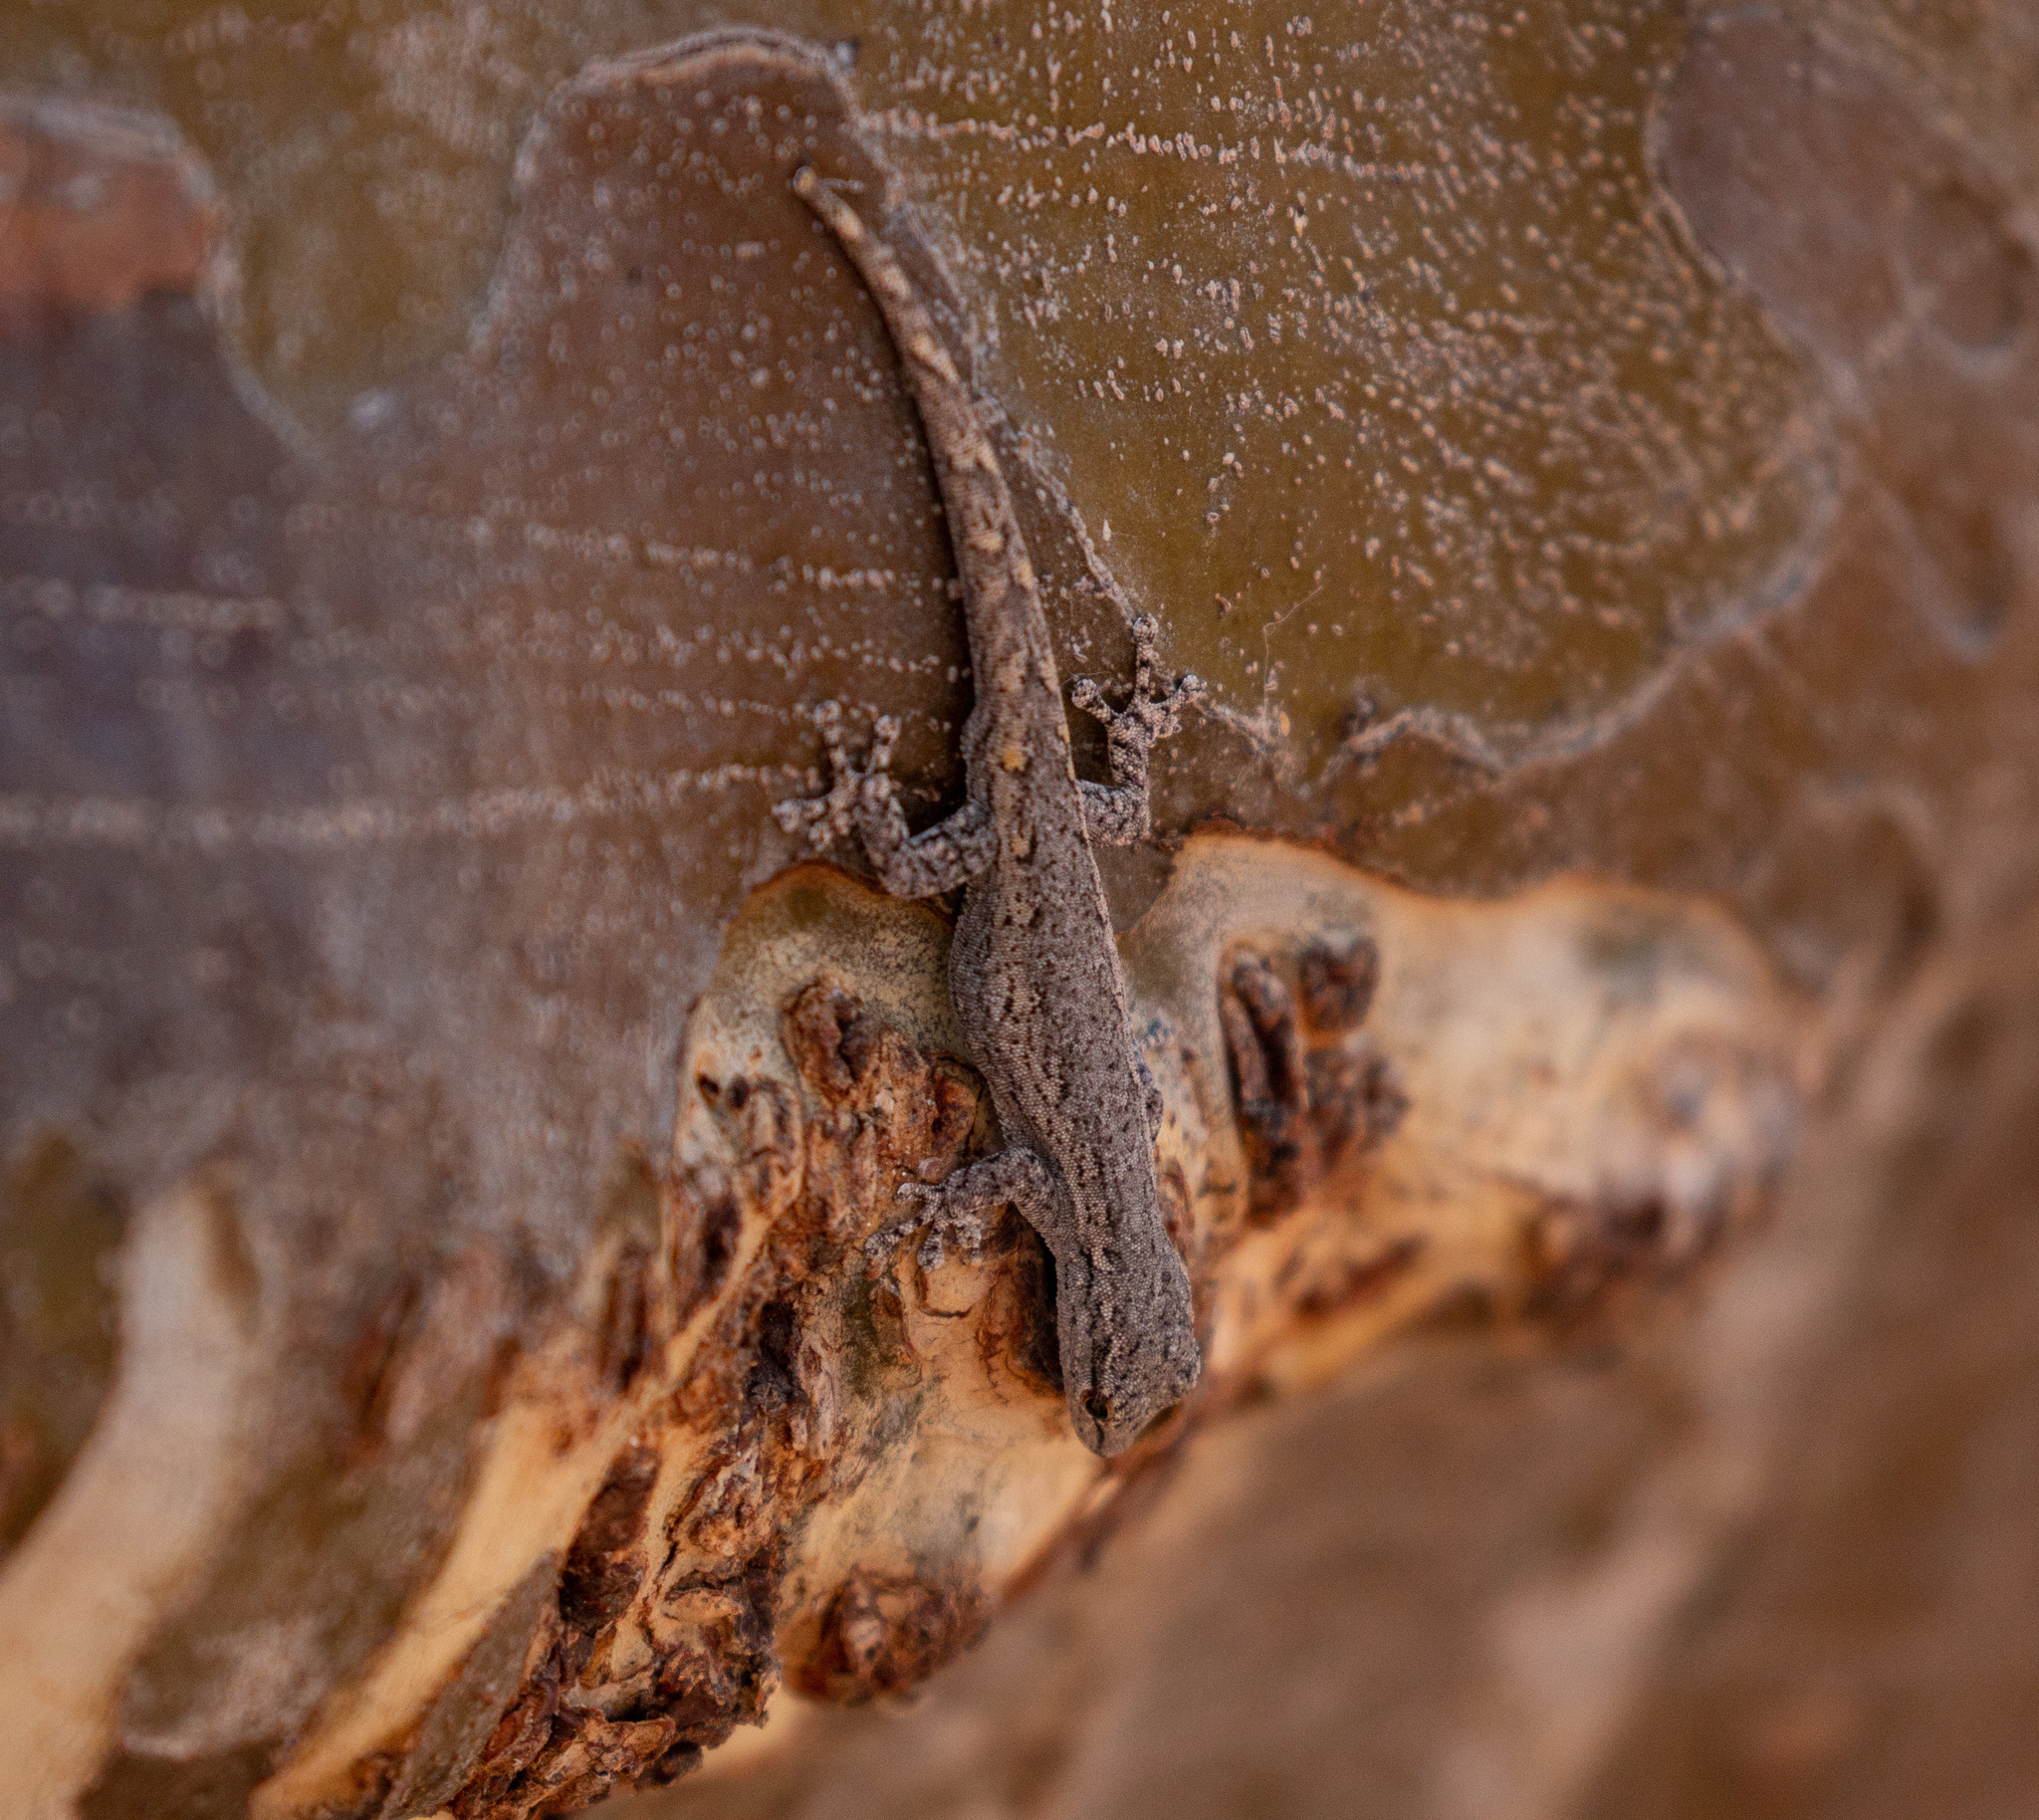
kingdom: Animalia
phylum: Chordata
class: Squamata
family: Gekkonidae
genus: Lygodactylus
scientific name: Lygodactylus klugei
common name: Kluge's dwarf gecko
